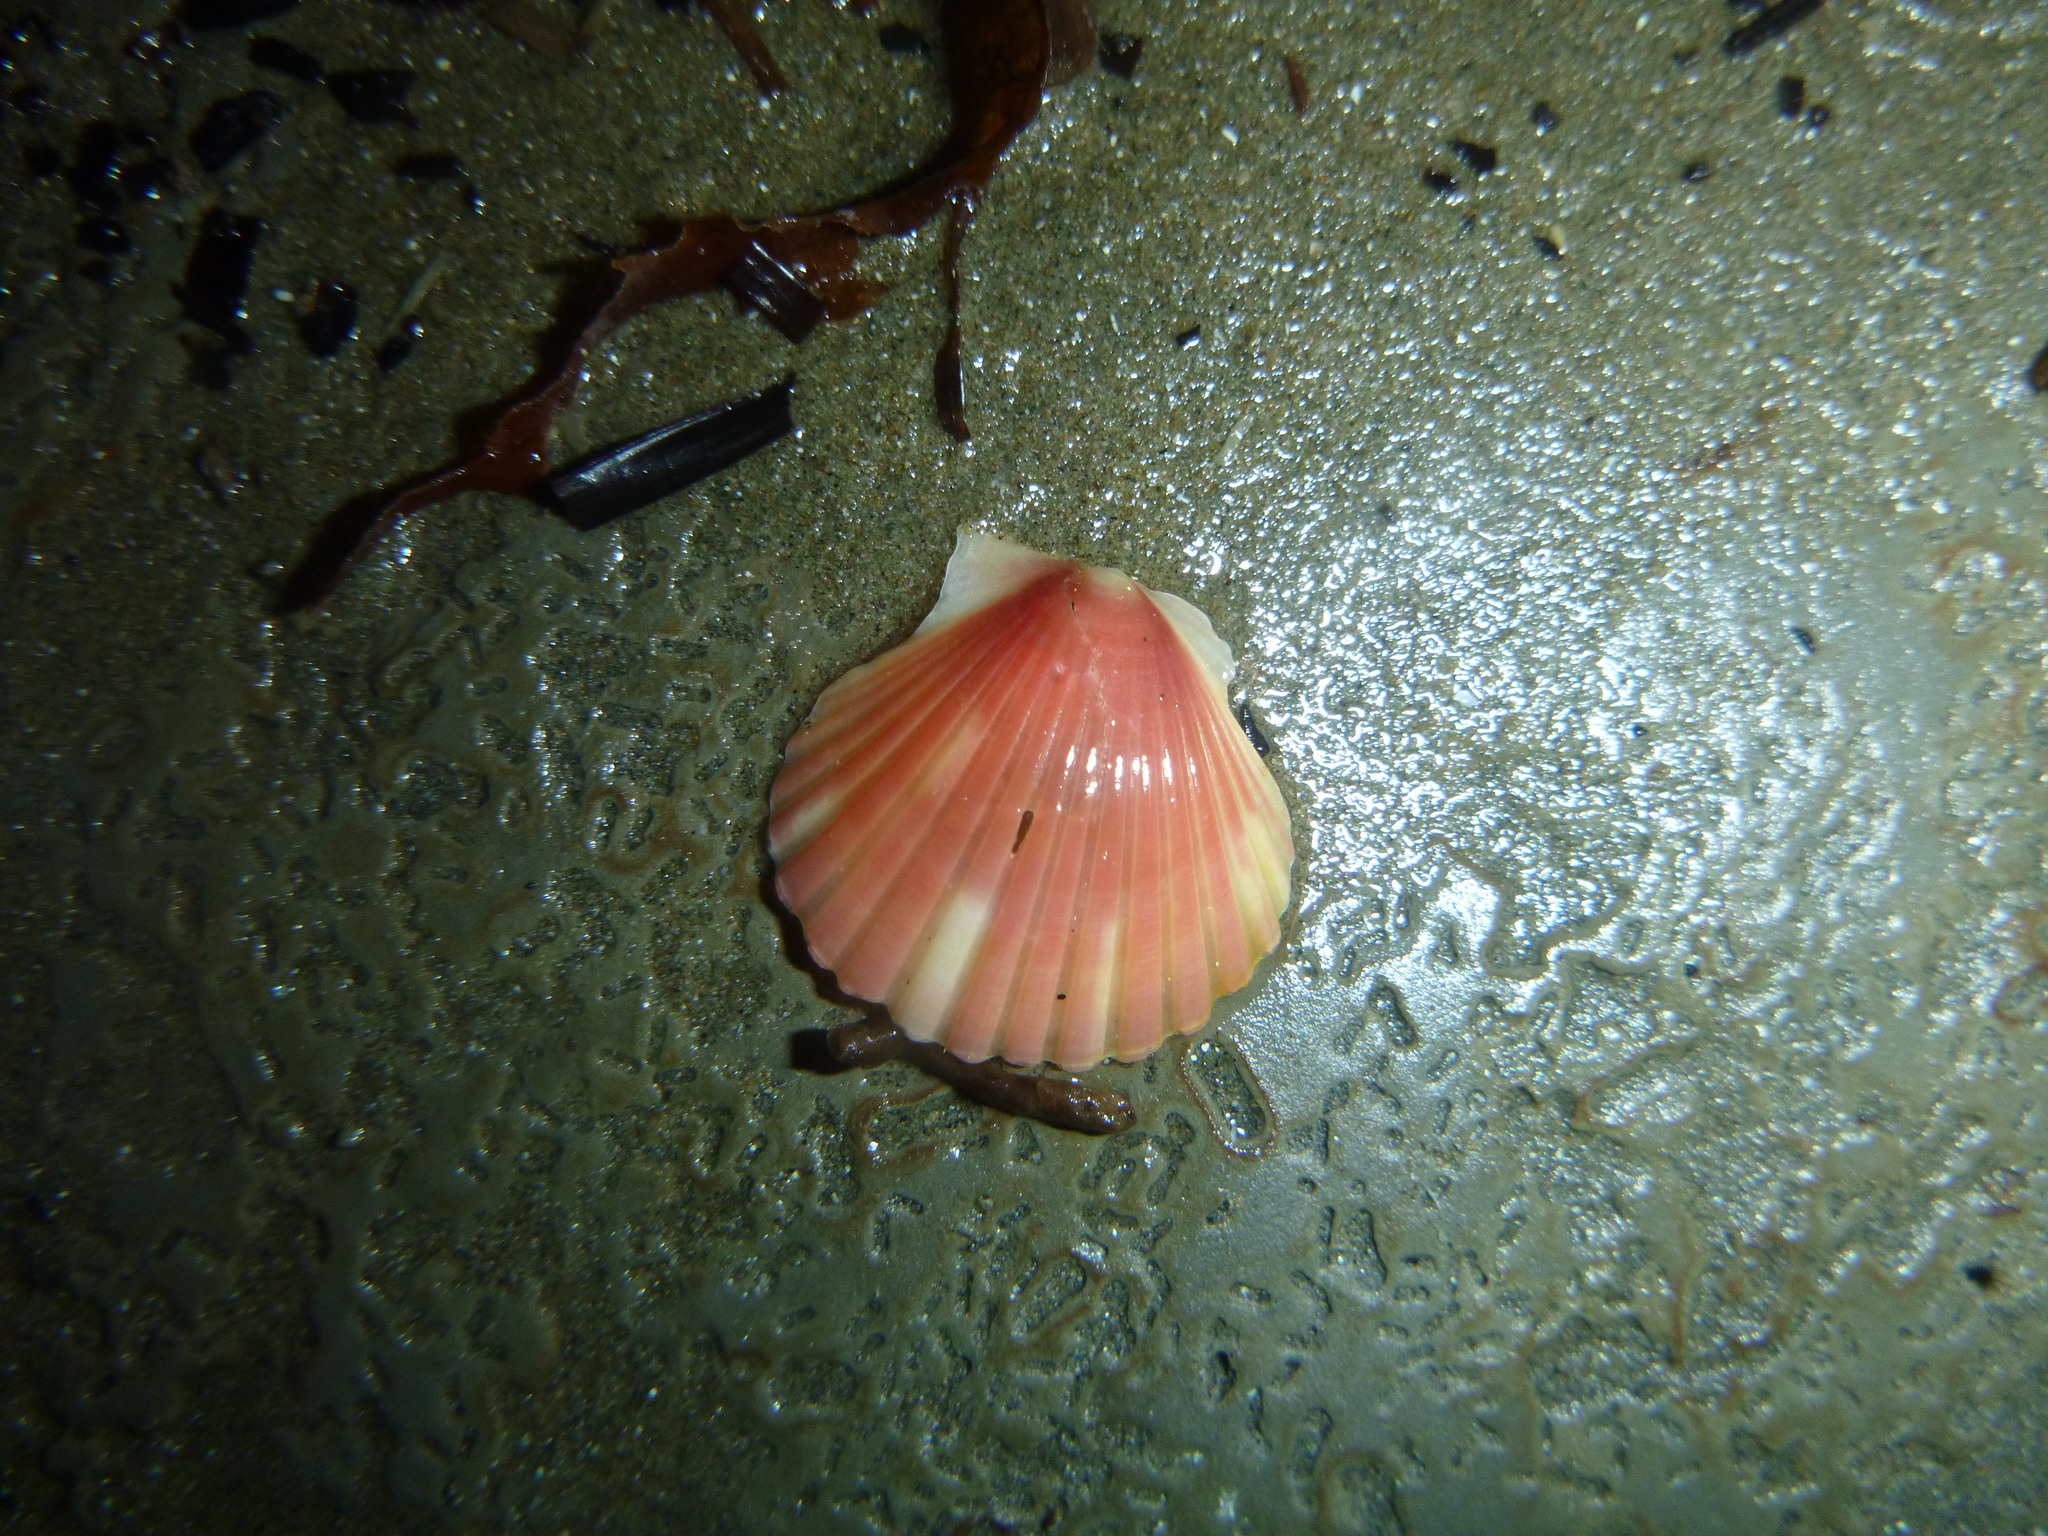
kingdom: Animalia
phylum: Mollusca
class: Bivalvia
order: Pectinida
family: Pectinidae
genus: Pecten
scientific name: Pecten novaezelandiae
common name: New zealand scallop
